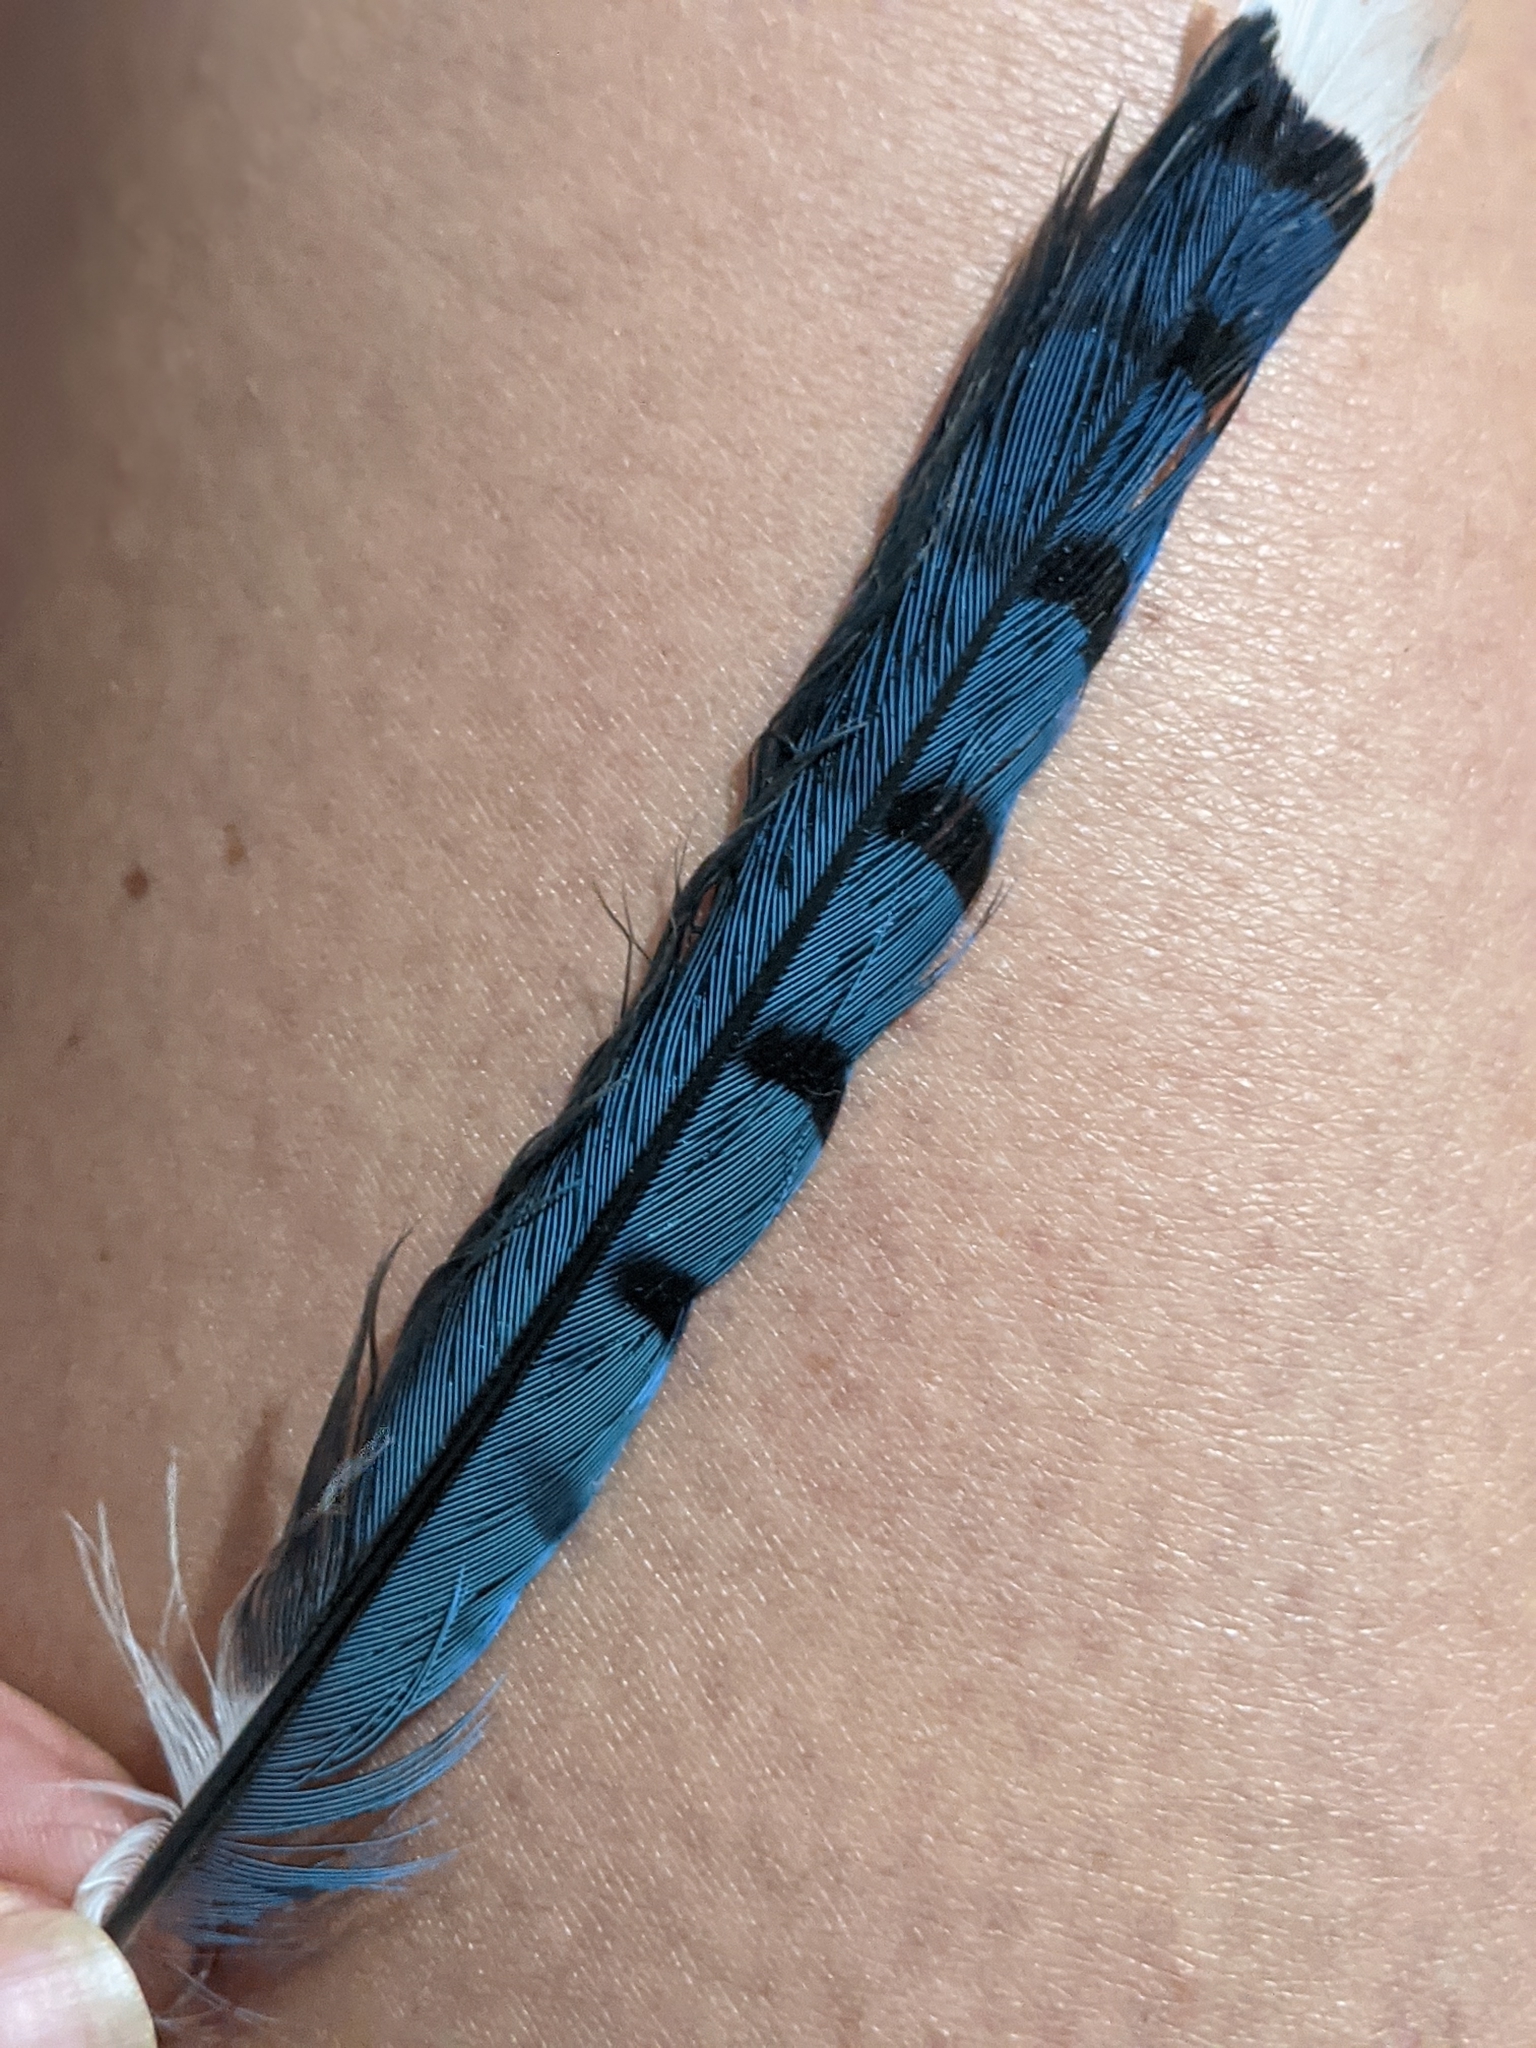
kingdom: Animalia
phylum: Chordata
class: Aves
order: Passeriformes
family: Corvidae
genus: Cyanocitta
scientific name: Cyanocitta cristata
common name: Blue jay
